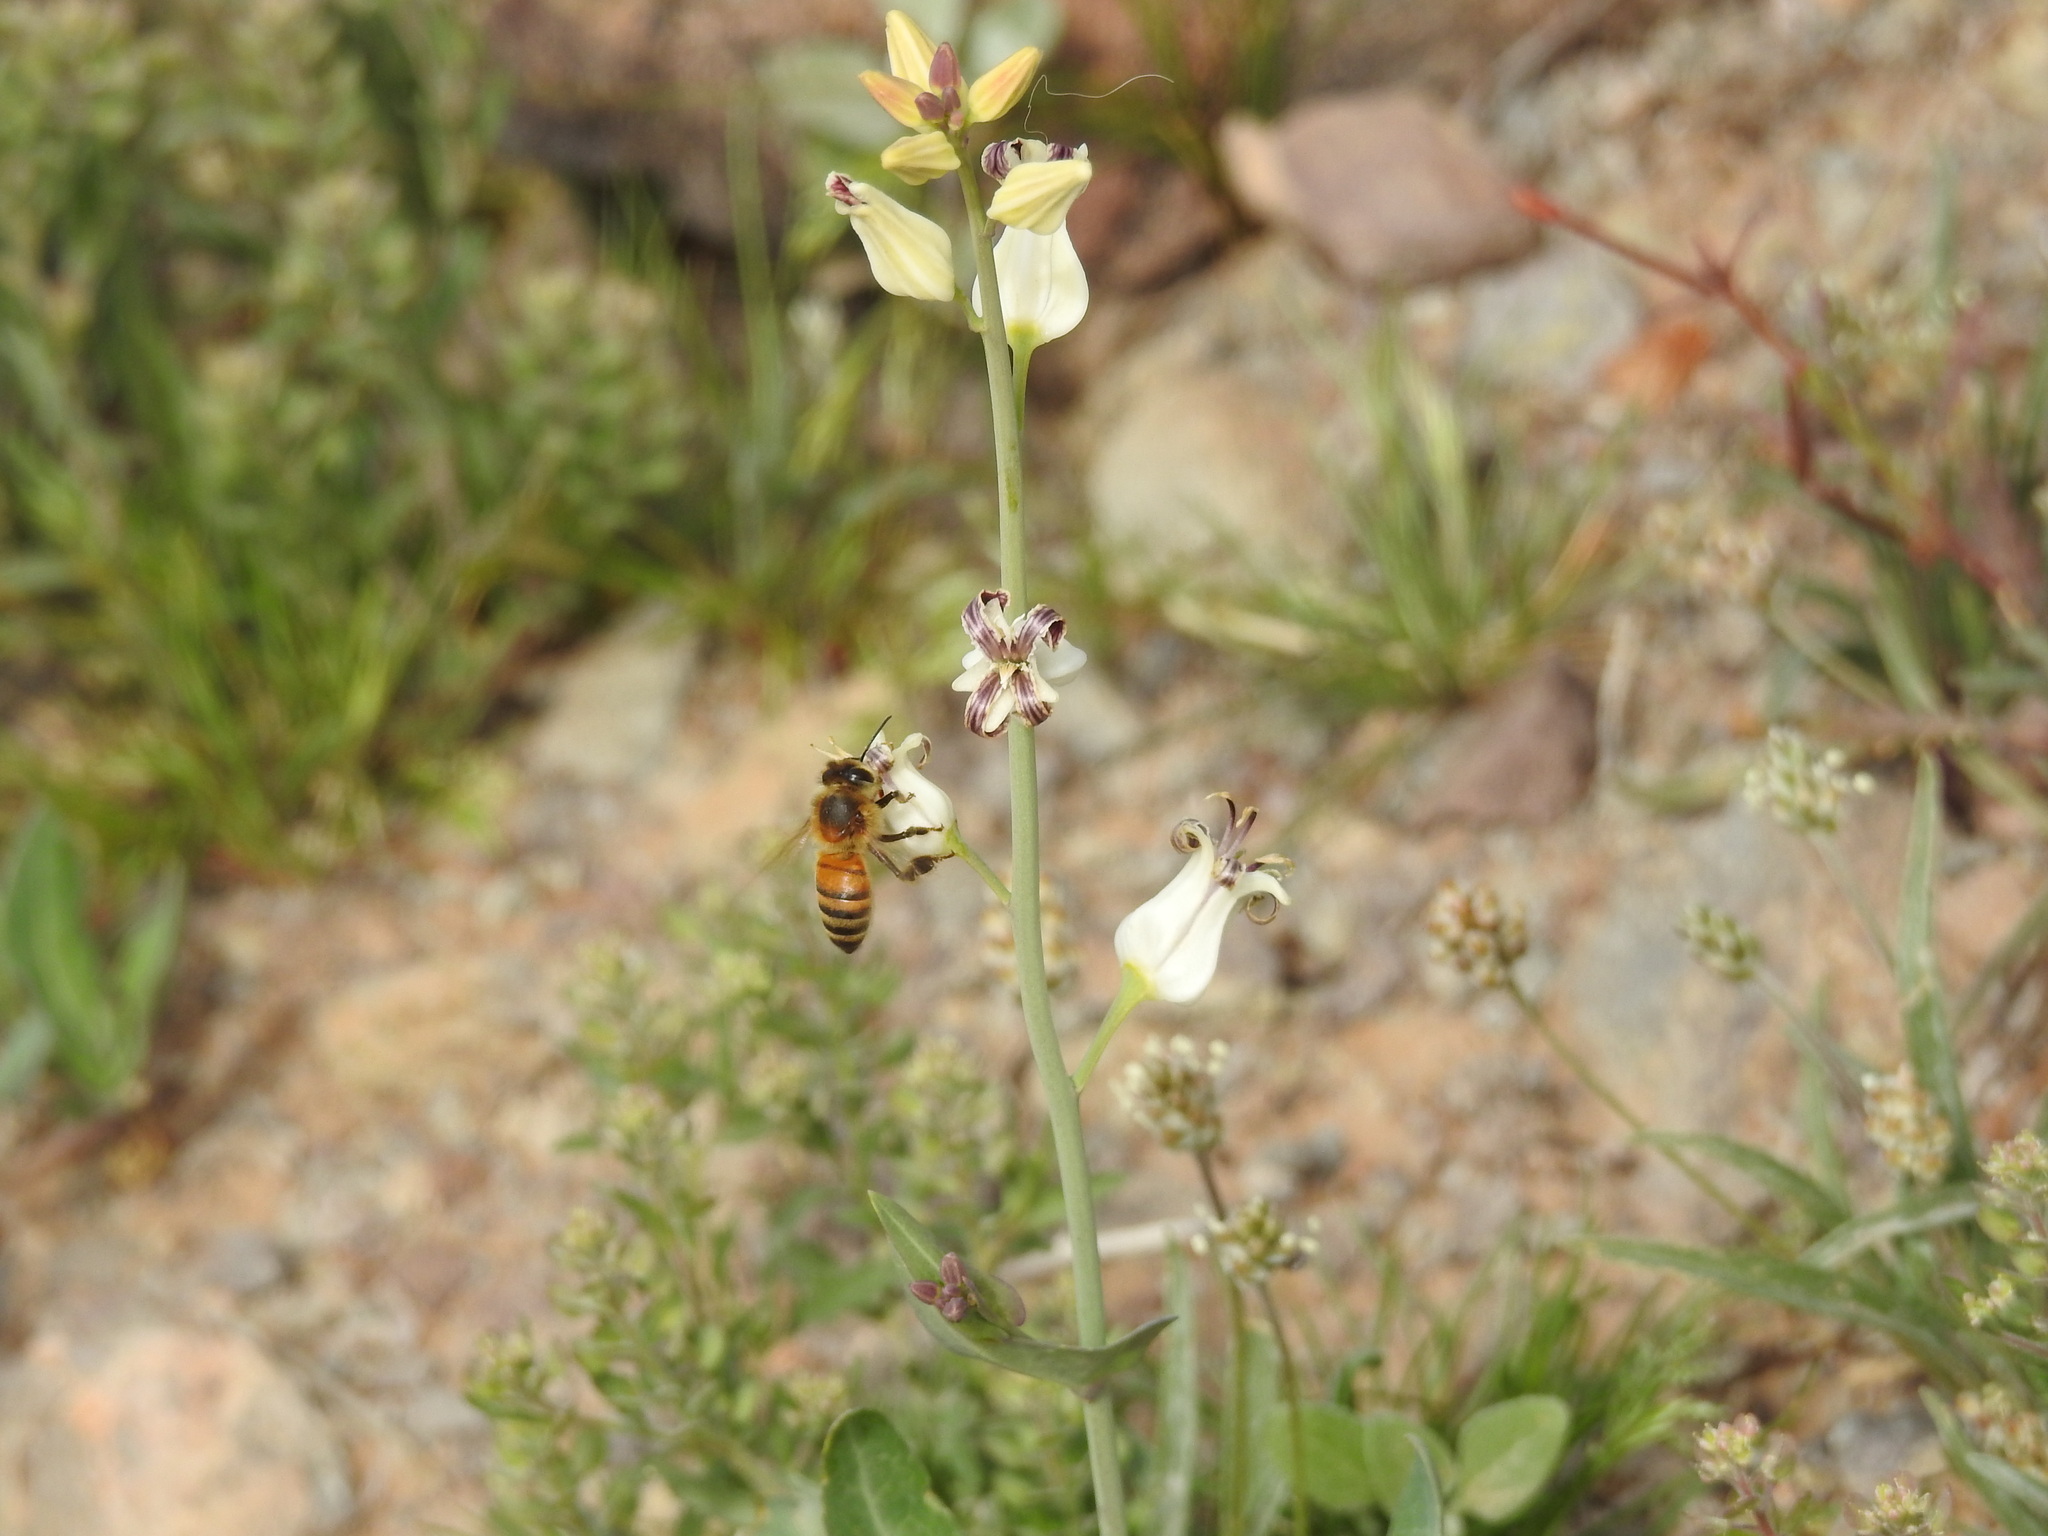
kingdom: Plantae
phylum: Tracheophyta
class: Magnoliopsida
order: Brassicales
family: Brassicaceae
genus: Streptanthus
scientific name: Streptanthus carinatus
